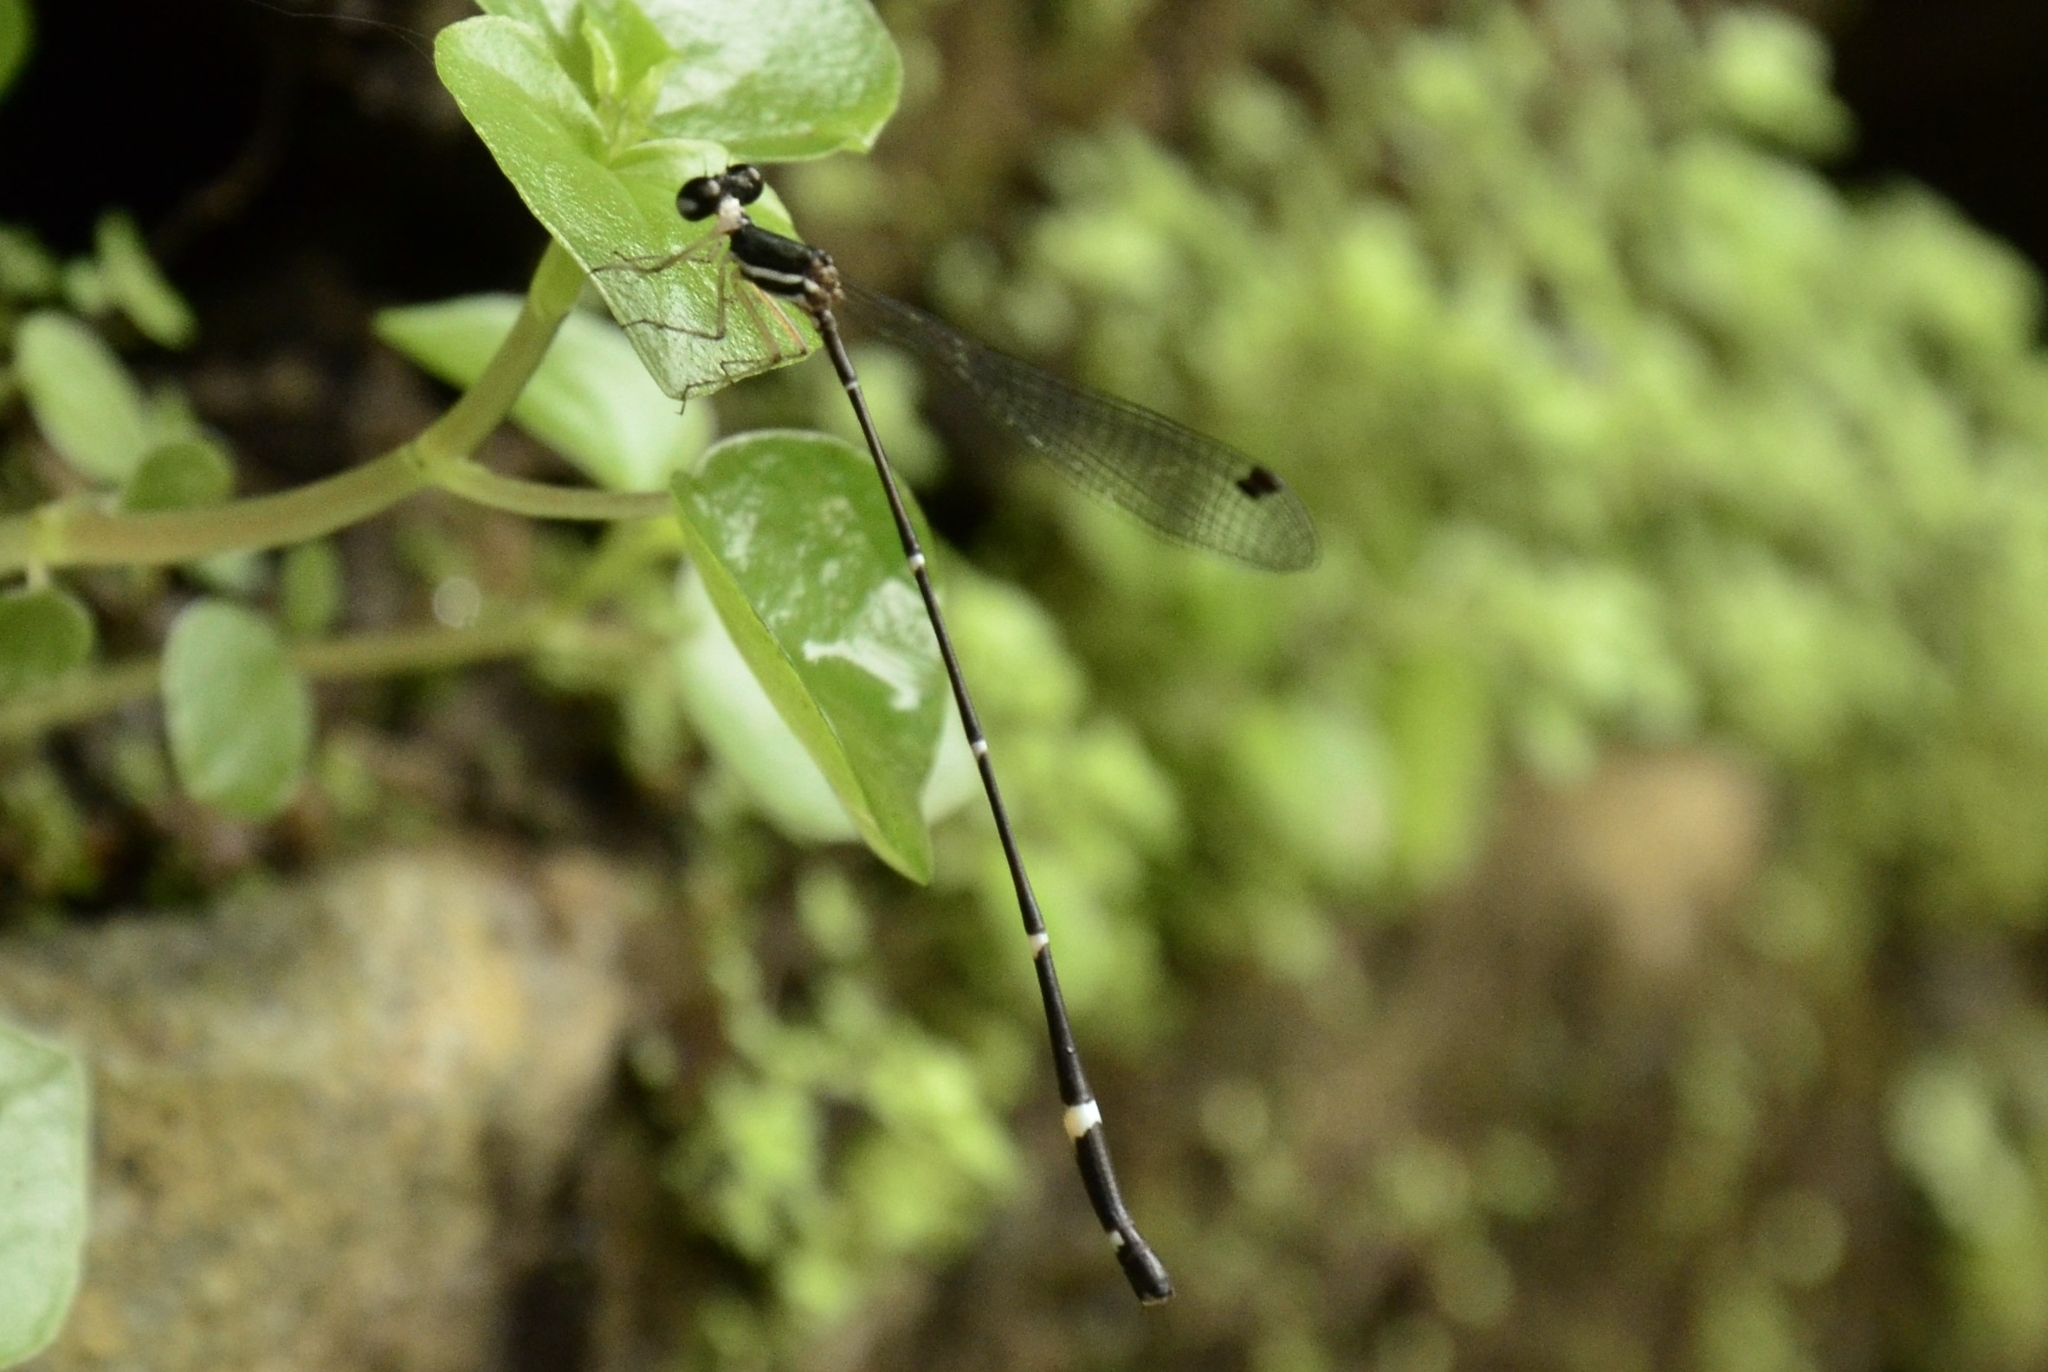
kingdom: Animalia
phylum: Arthropoda
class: Insecta
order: Odonata
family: Platystictidae
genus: Protosticta
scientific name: Protosticta gravelyi
